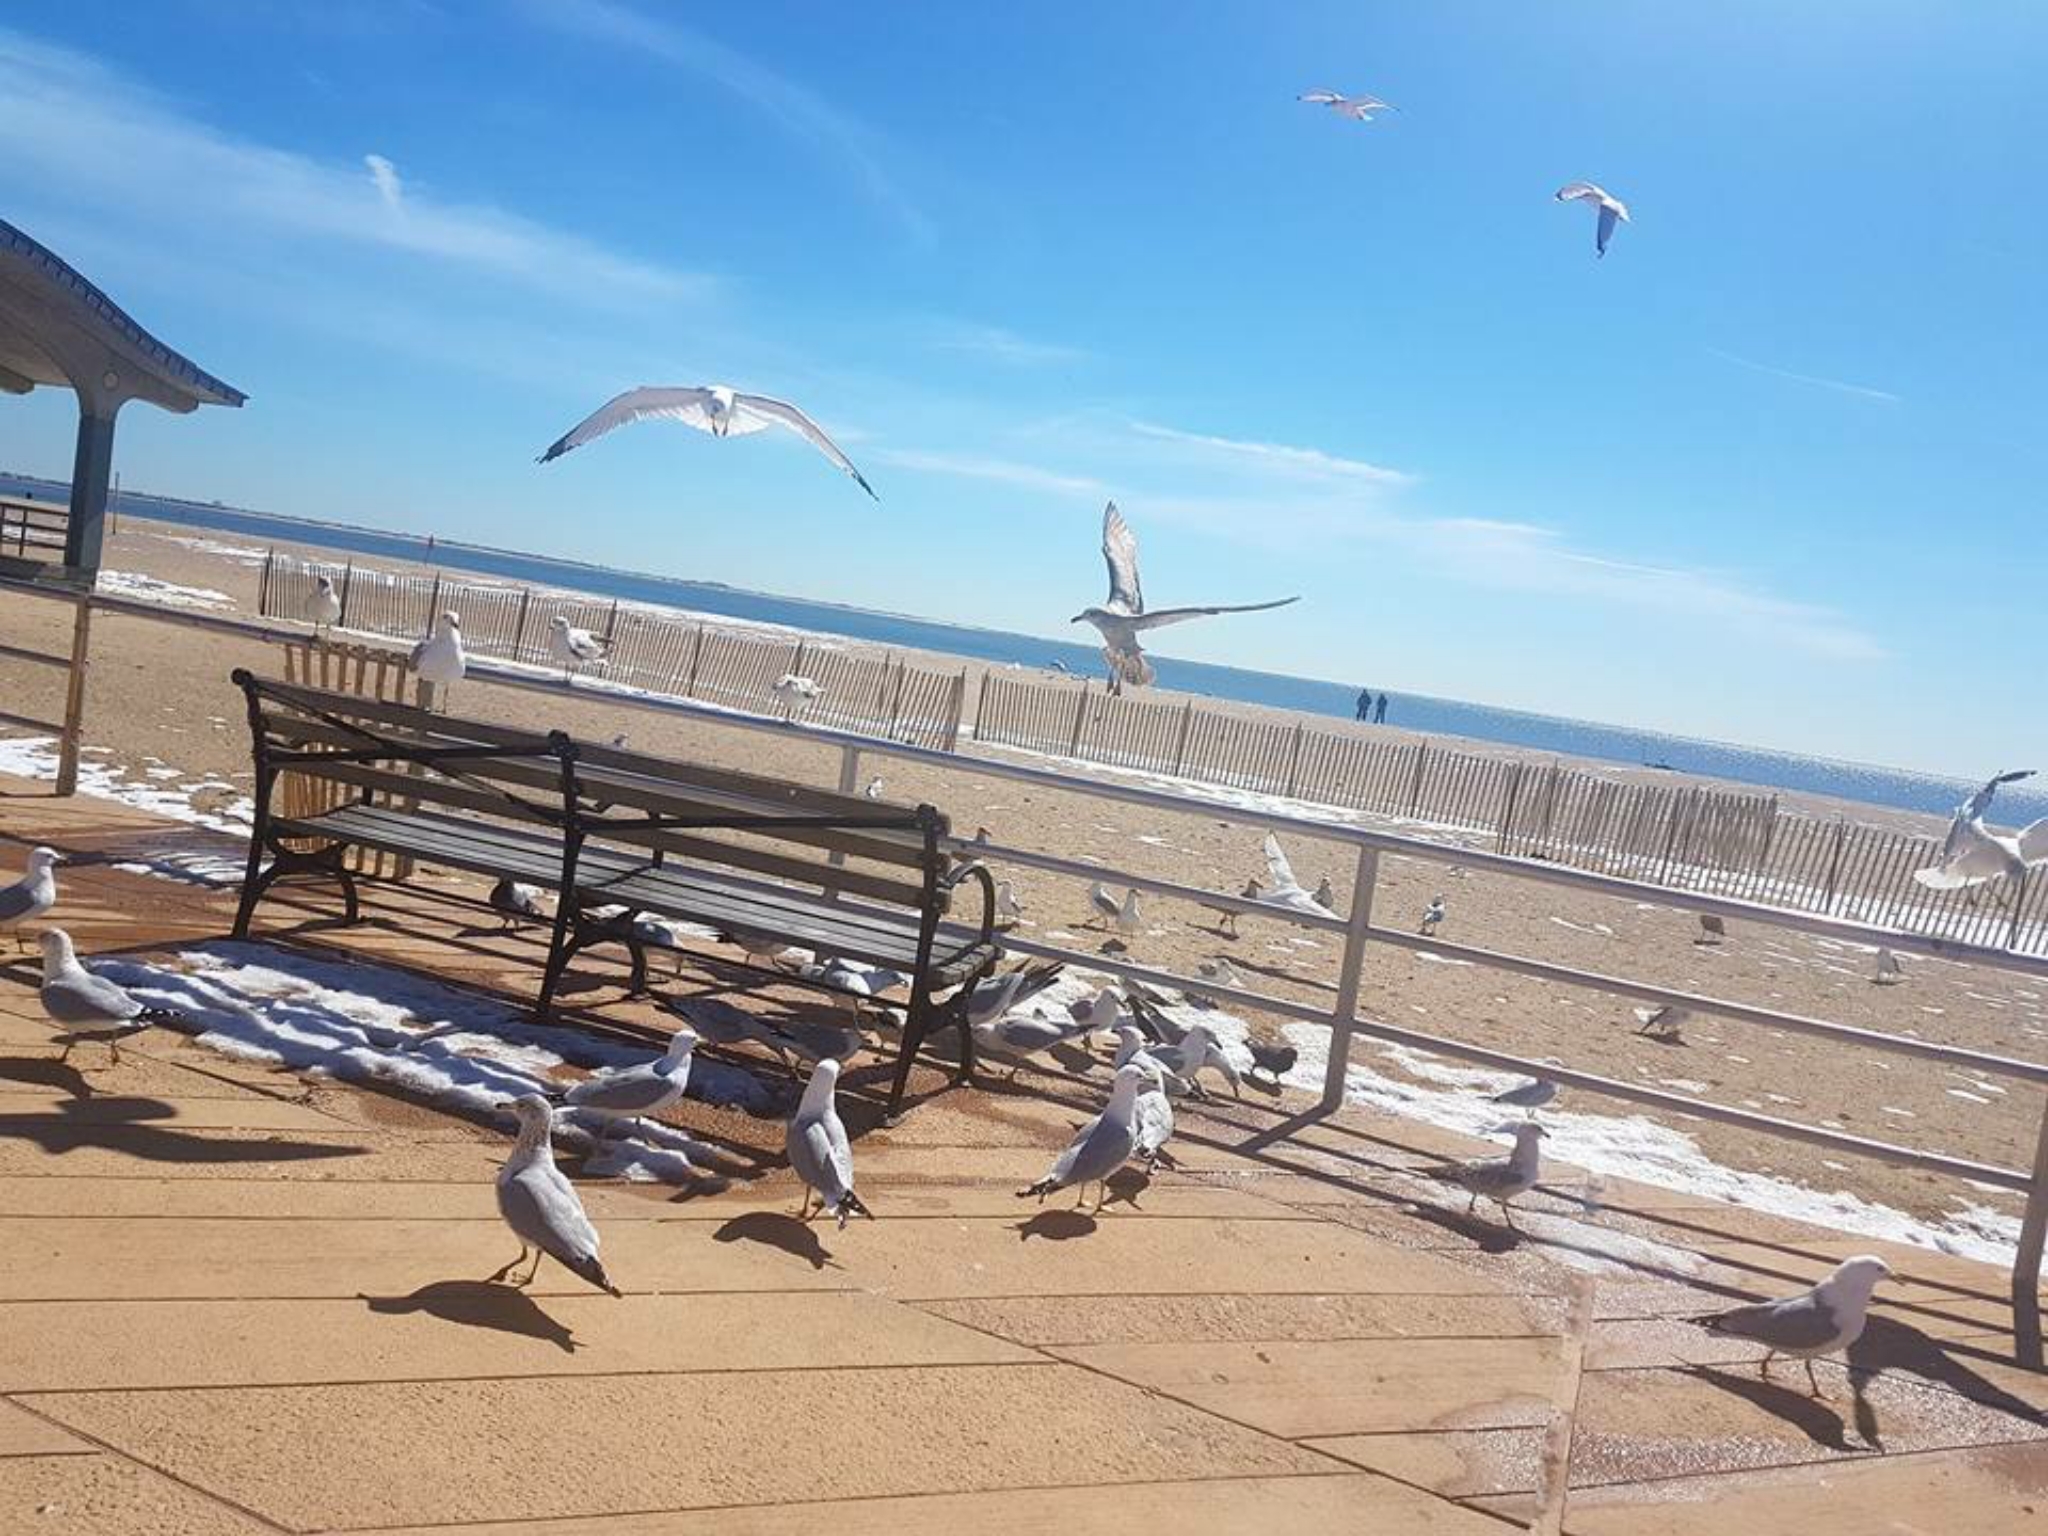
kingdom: Animalia
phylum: Chordata
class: Aves
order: Charadriiformes
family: Laridae
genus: Larus
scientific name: Larus delawarensis
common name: Ring-billed gull
